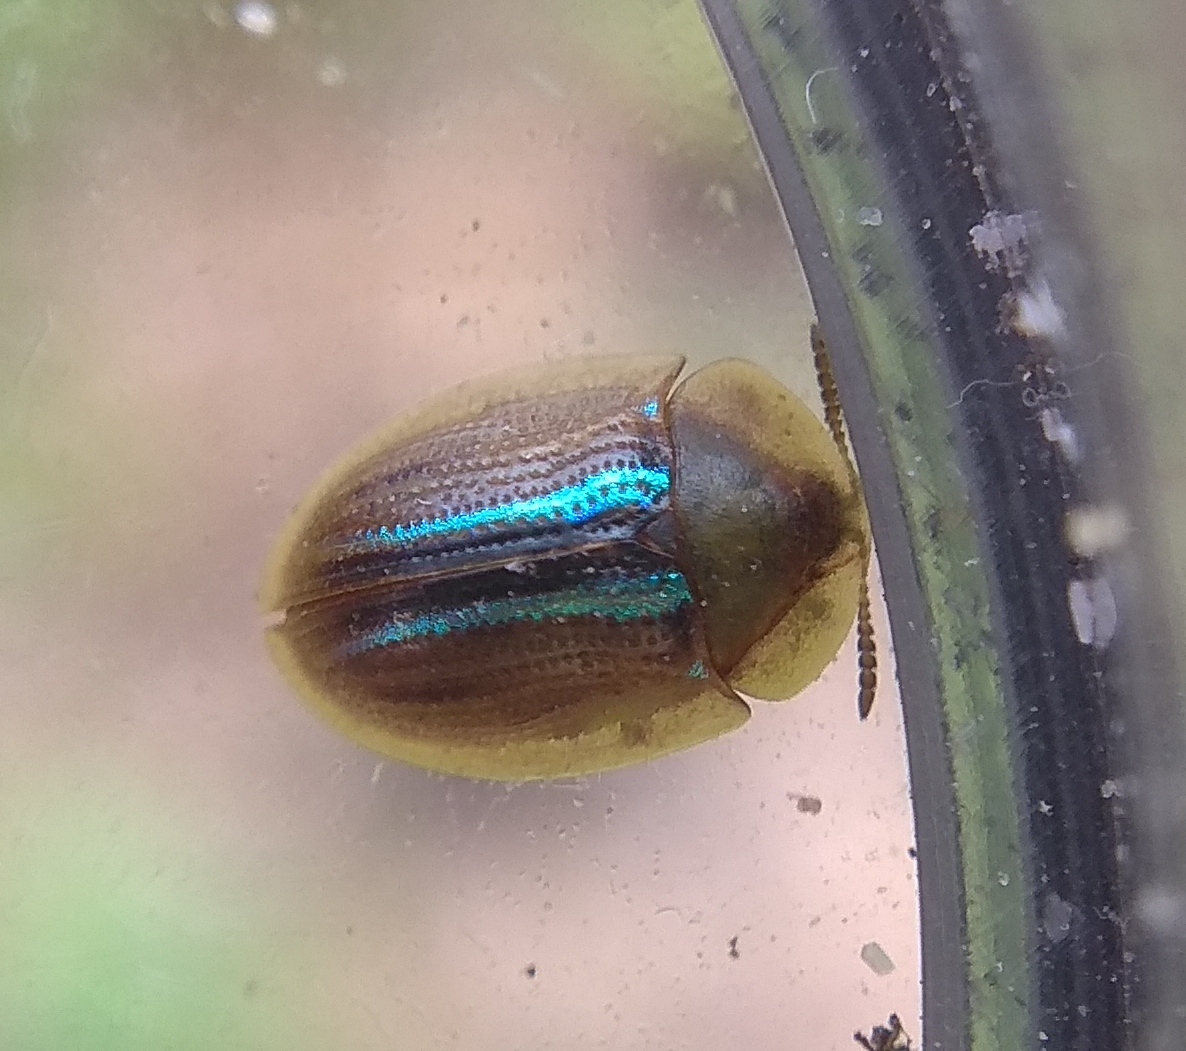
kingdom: Animalia
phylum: Arthropoda
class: Insecta
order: Coleoptera
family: Chrysomelidae
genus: Cassida
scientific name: Cassida nobilis
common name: Leaf beetle
